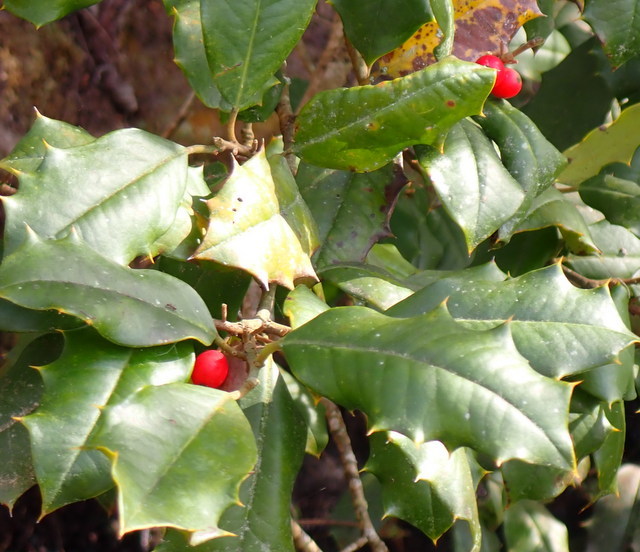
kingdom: Plantae
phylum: Tracheophyta
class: Magnoliopsida
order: Aquifoliales
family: Aquifoliaceae
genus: Ilex
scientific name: Ilex opaca
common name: American holly
